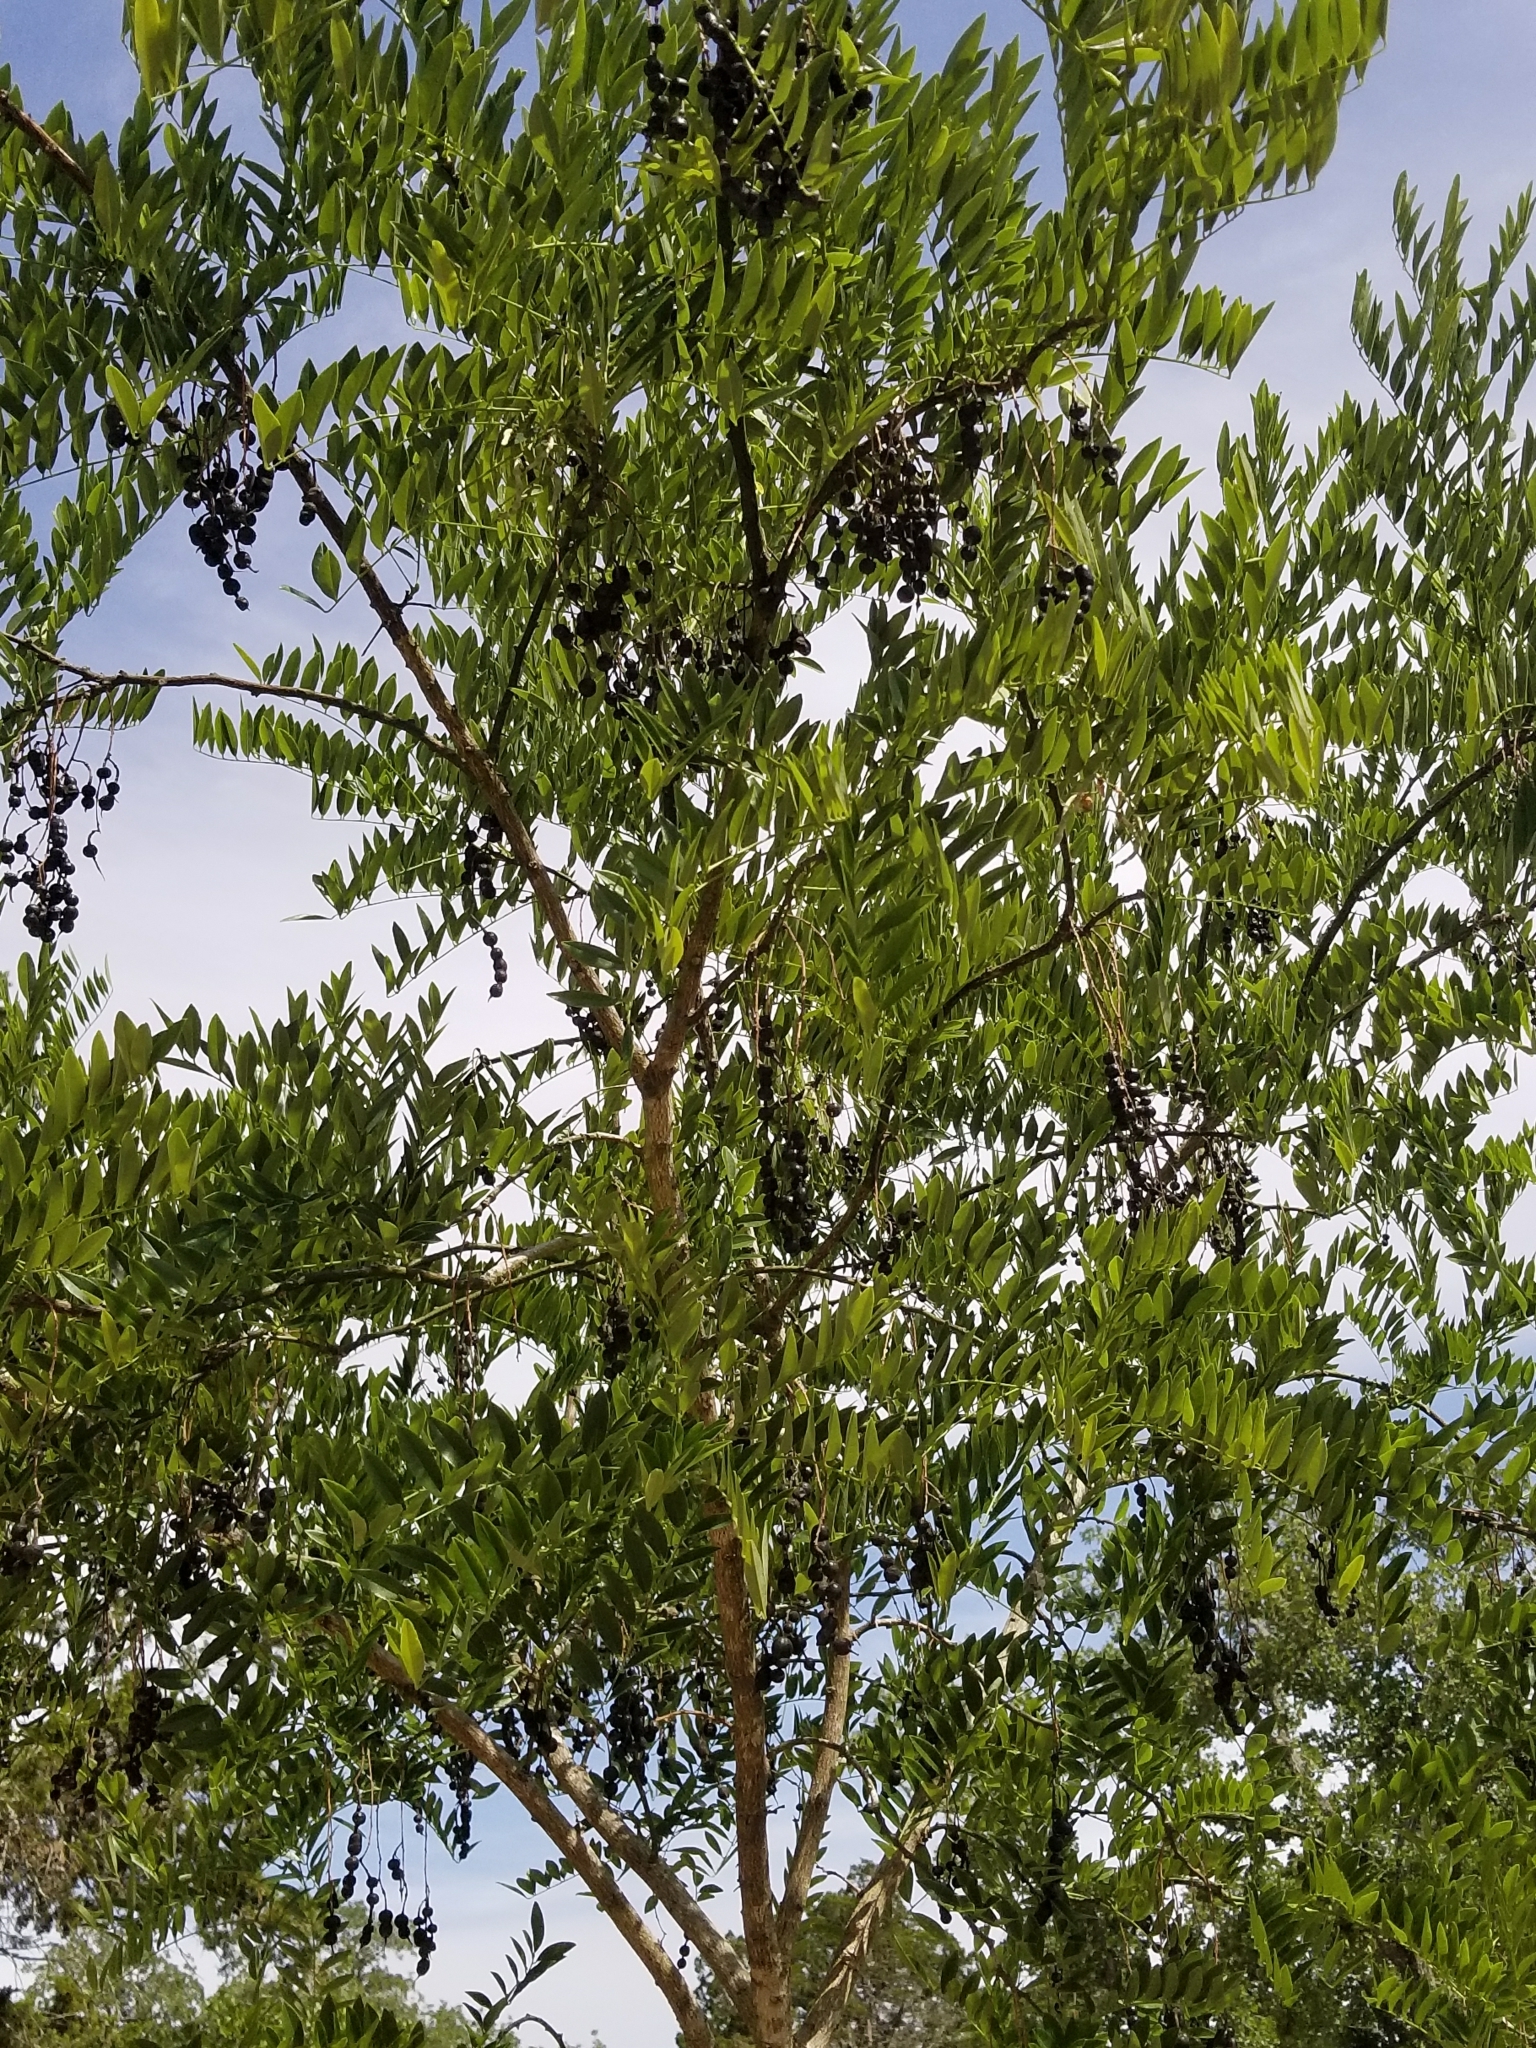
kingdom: Plantae
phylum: Tracheophyta
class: Magnoliopsida
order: Fabales
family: Fabaceae
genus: Styphnolobium
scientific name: Styphnolobium affine
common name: Texas sophora
